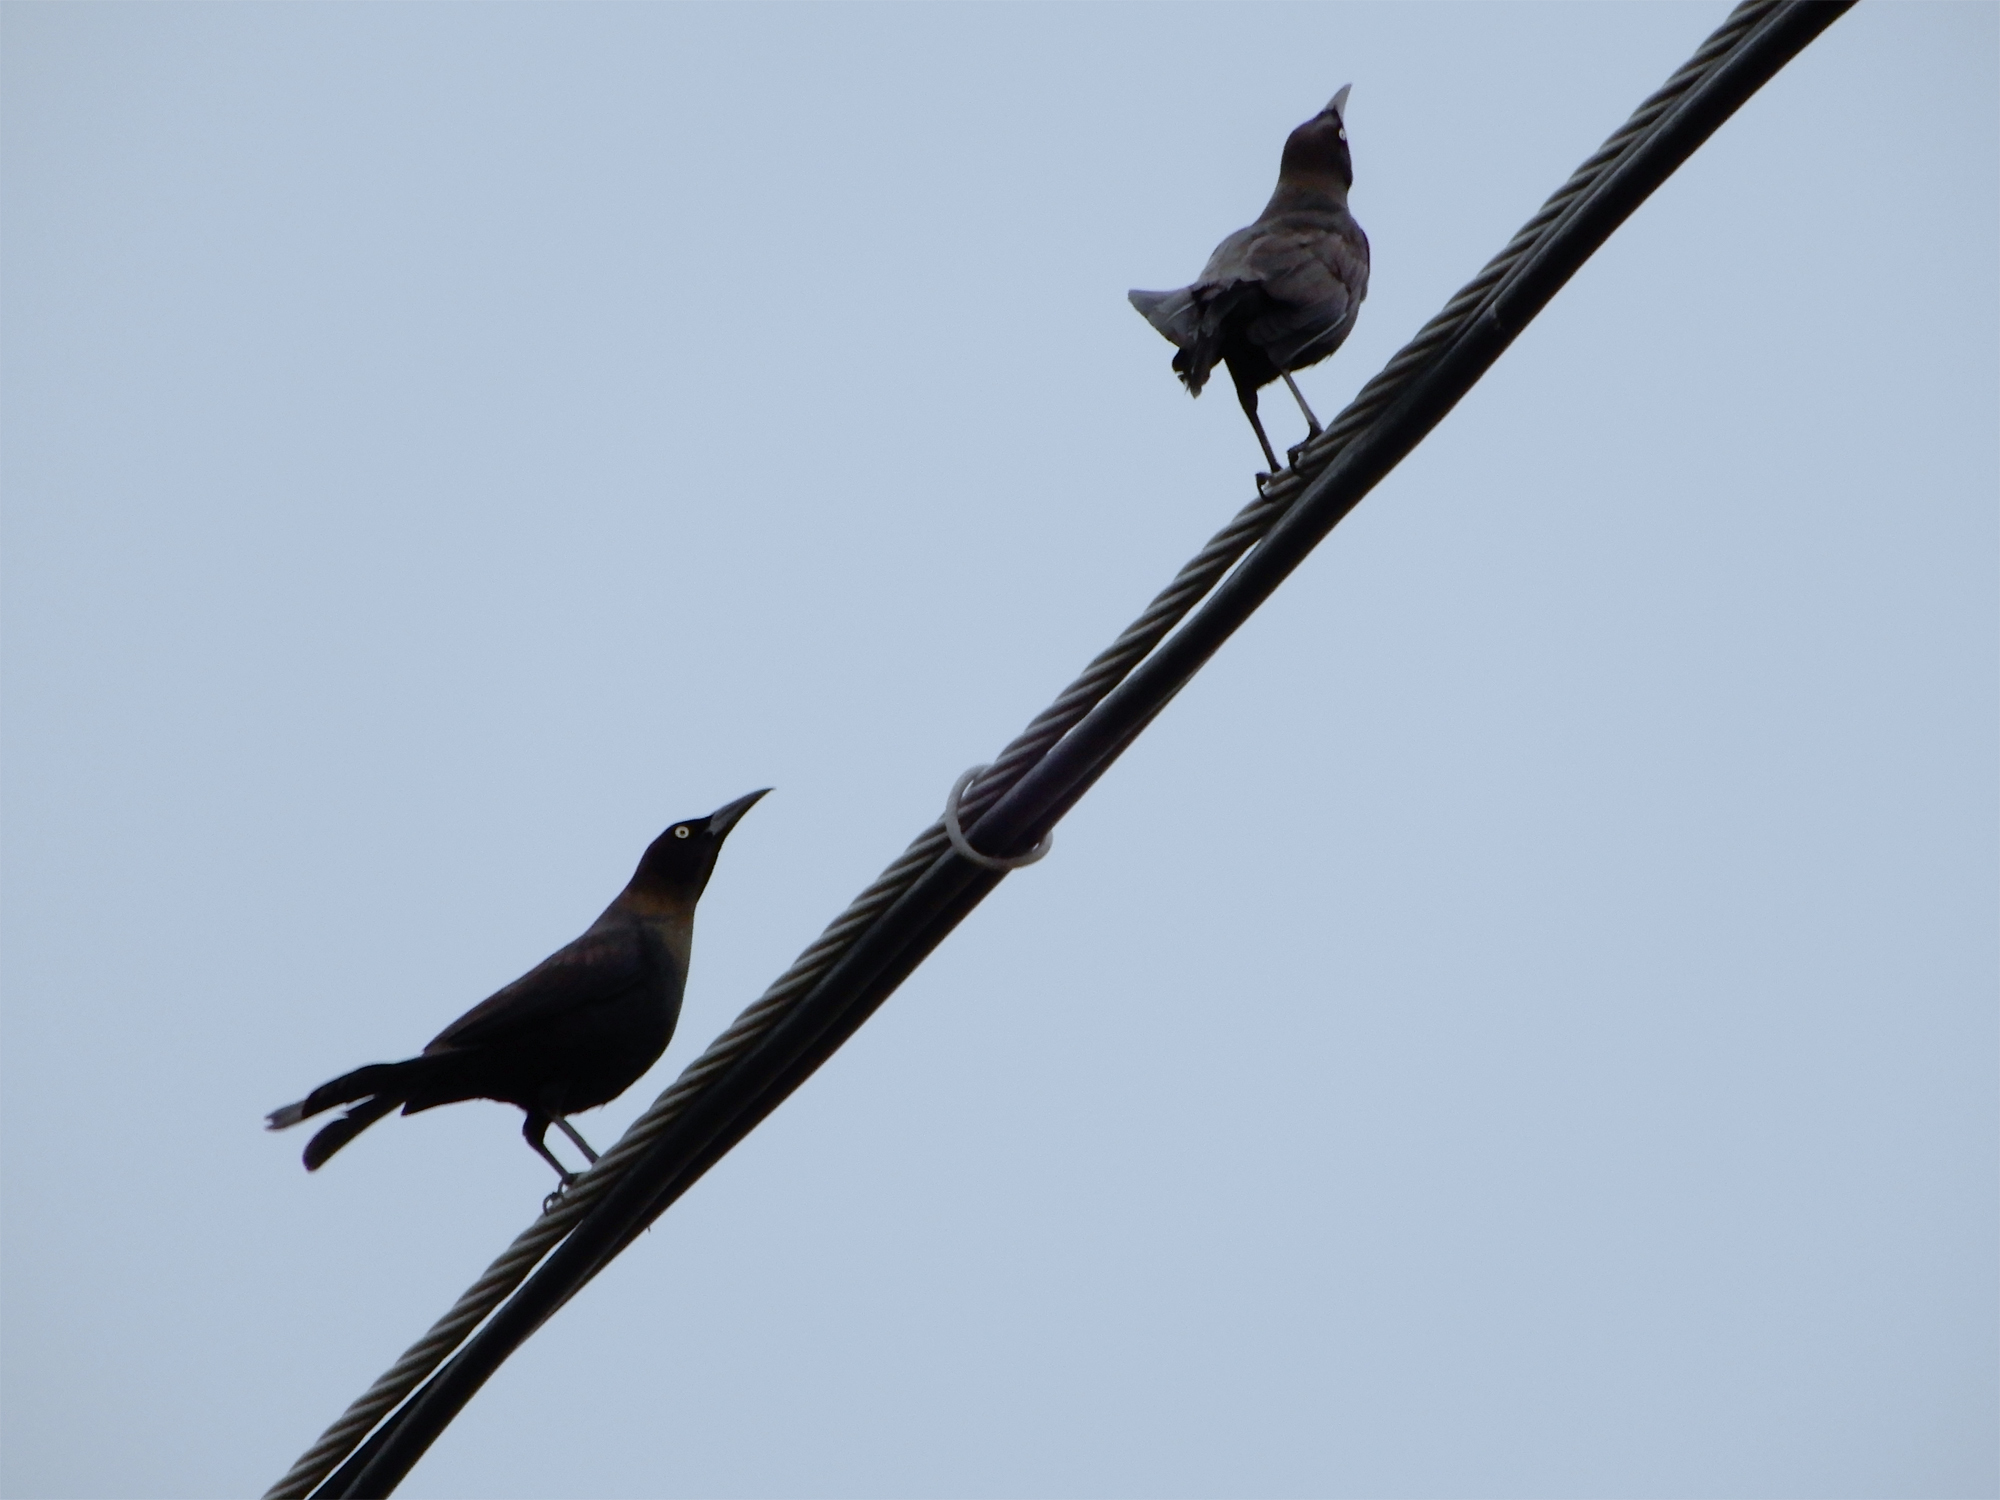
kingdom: Animalia
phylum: Chordata
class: Aves
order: Passeriformes
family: Icteridae
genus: Quiscalus
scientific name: Quiscalus quiscula
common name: Common grackle
